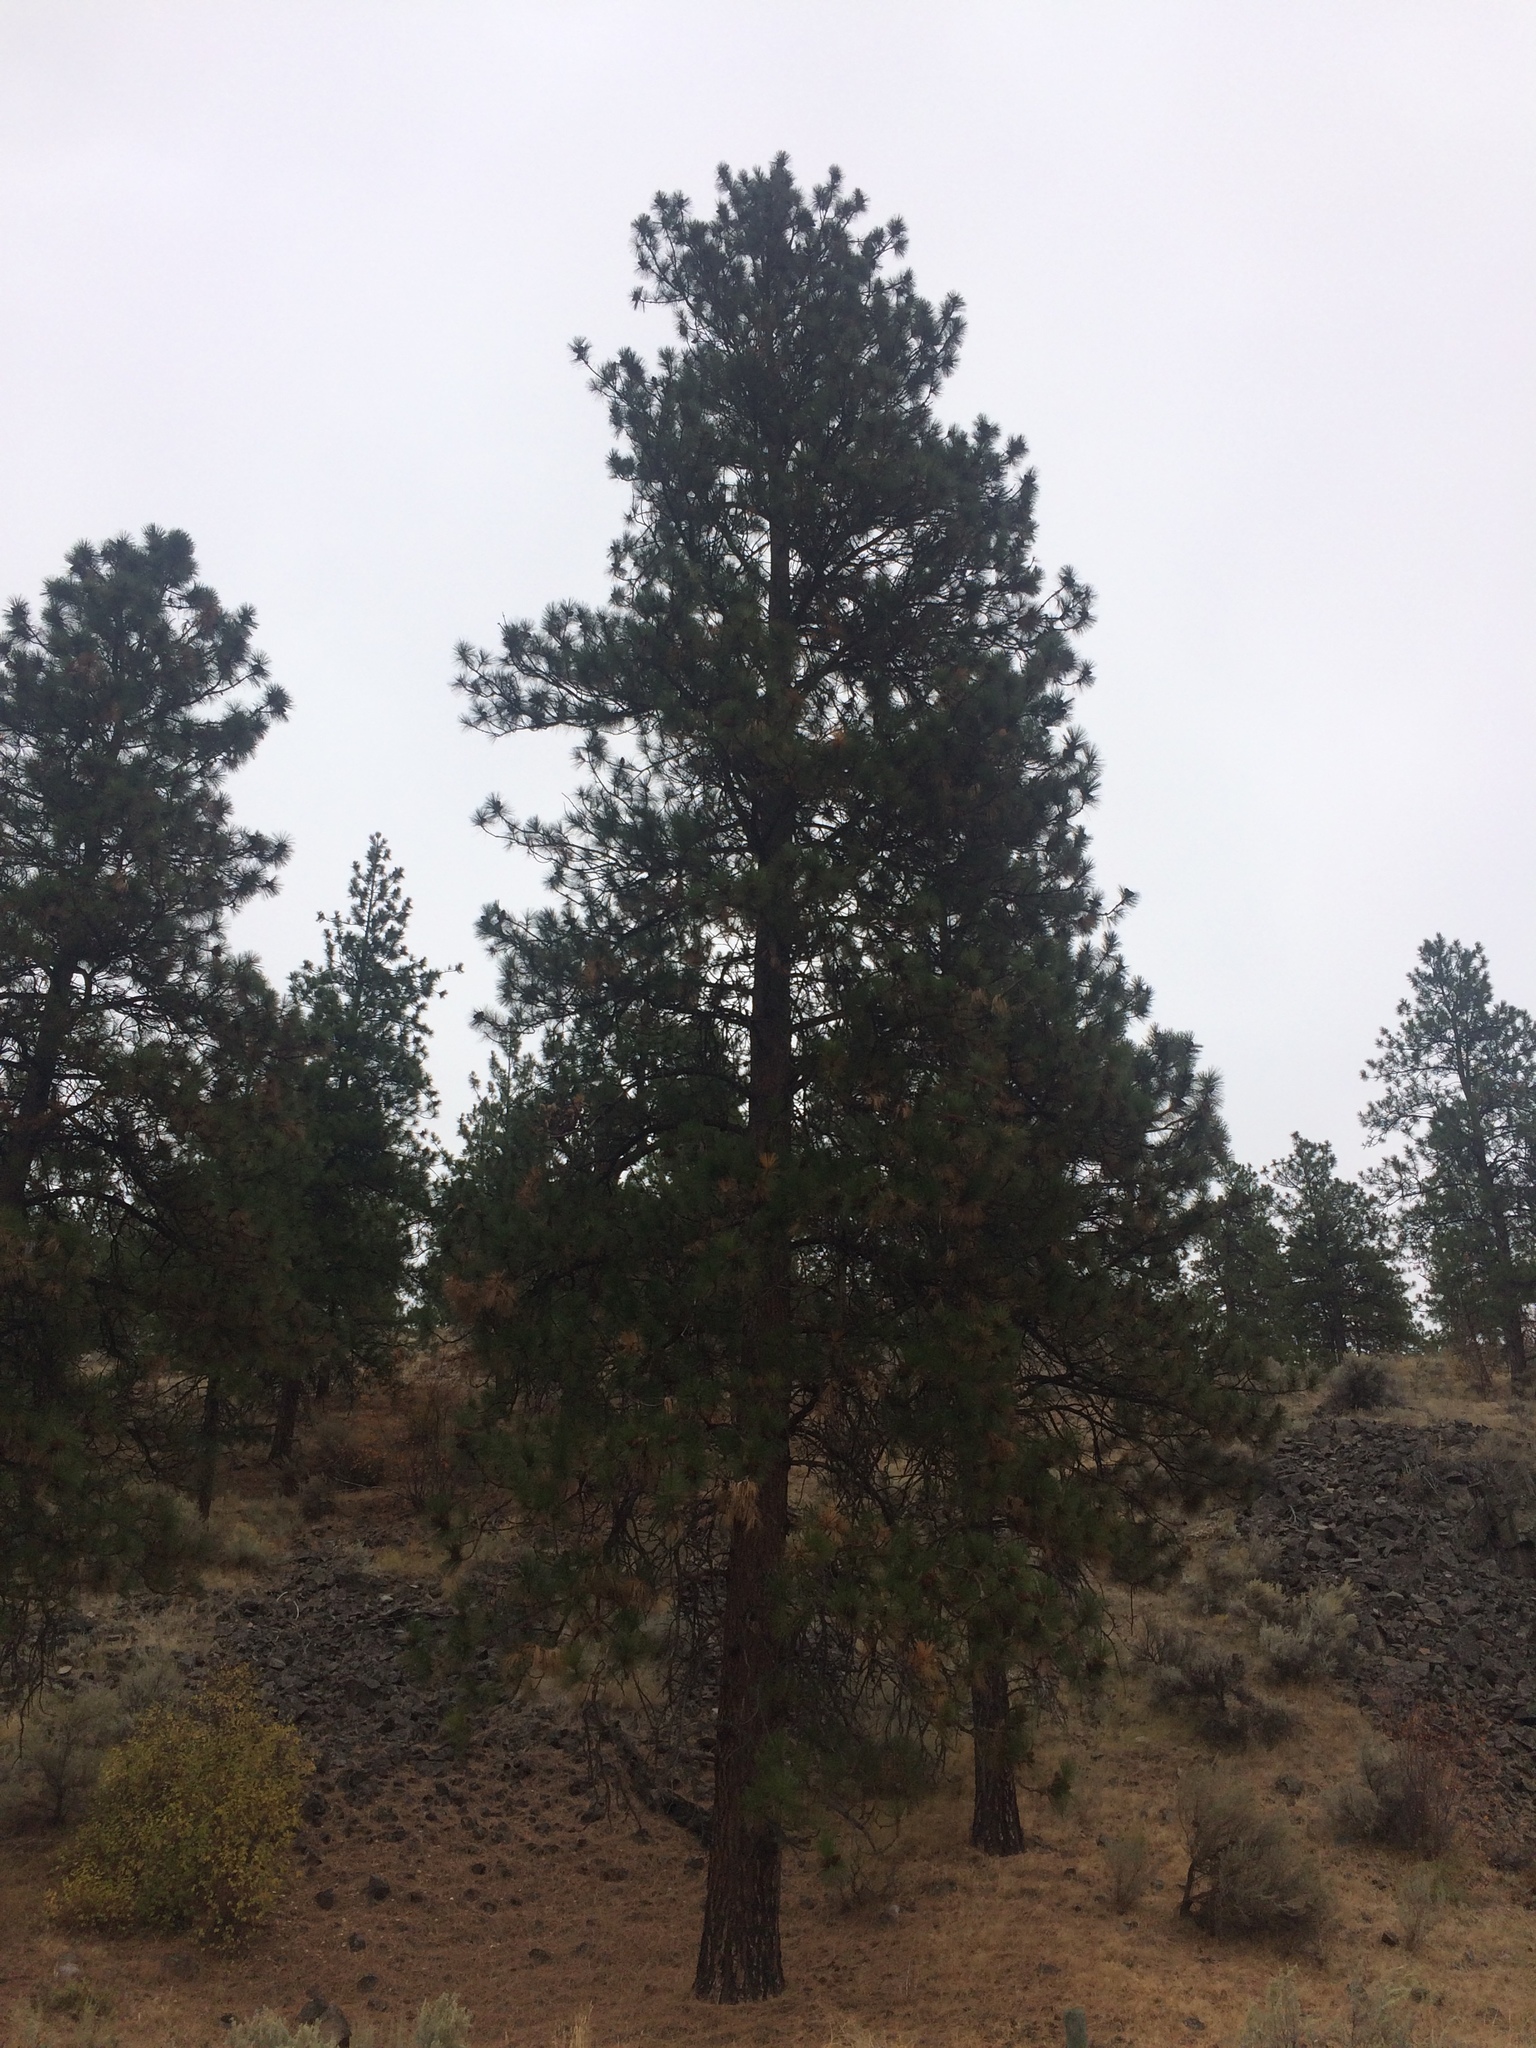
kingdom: Plantae
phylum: Tracheophyta
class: Pinopsida
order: Pinales
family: Pinaceae
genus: Pinus
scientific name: Pinus ponderosa
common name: Western yellow-pine
